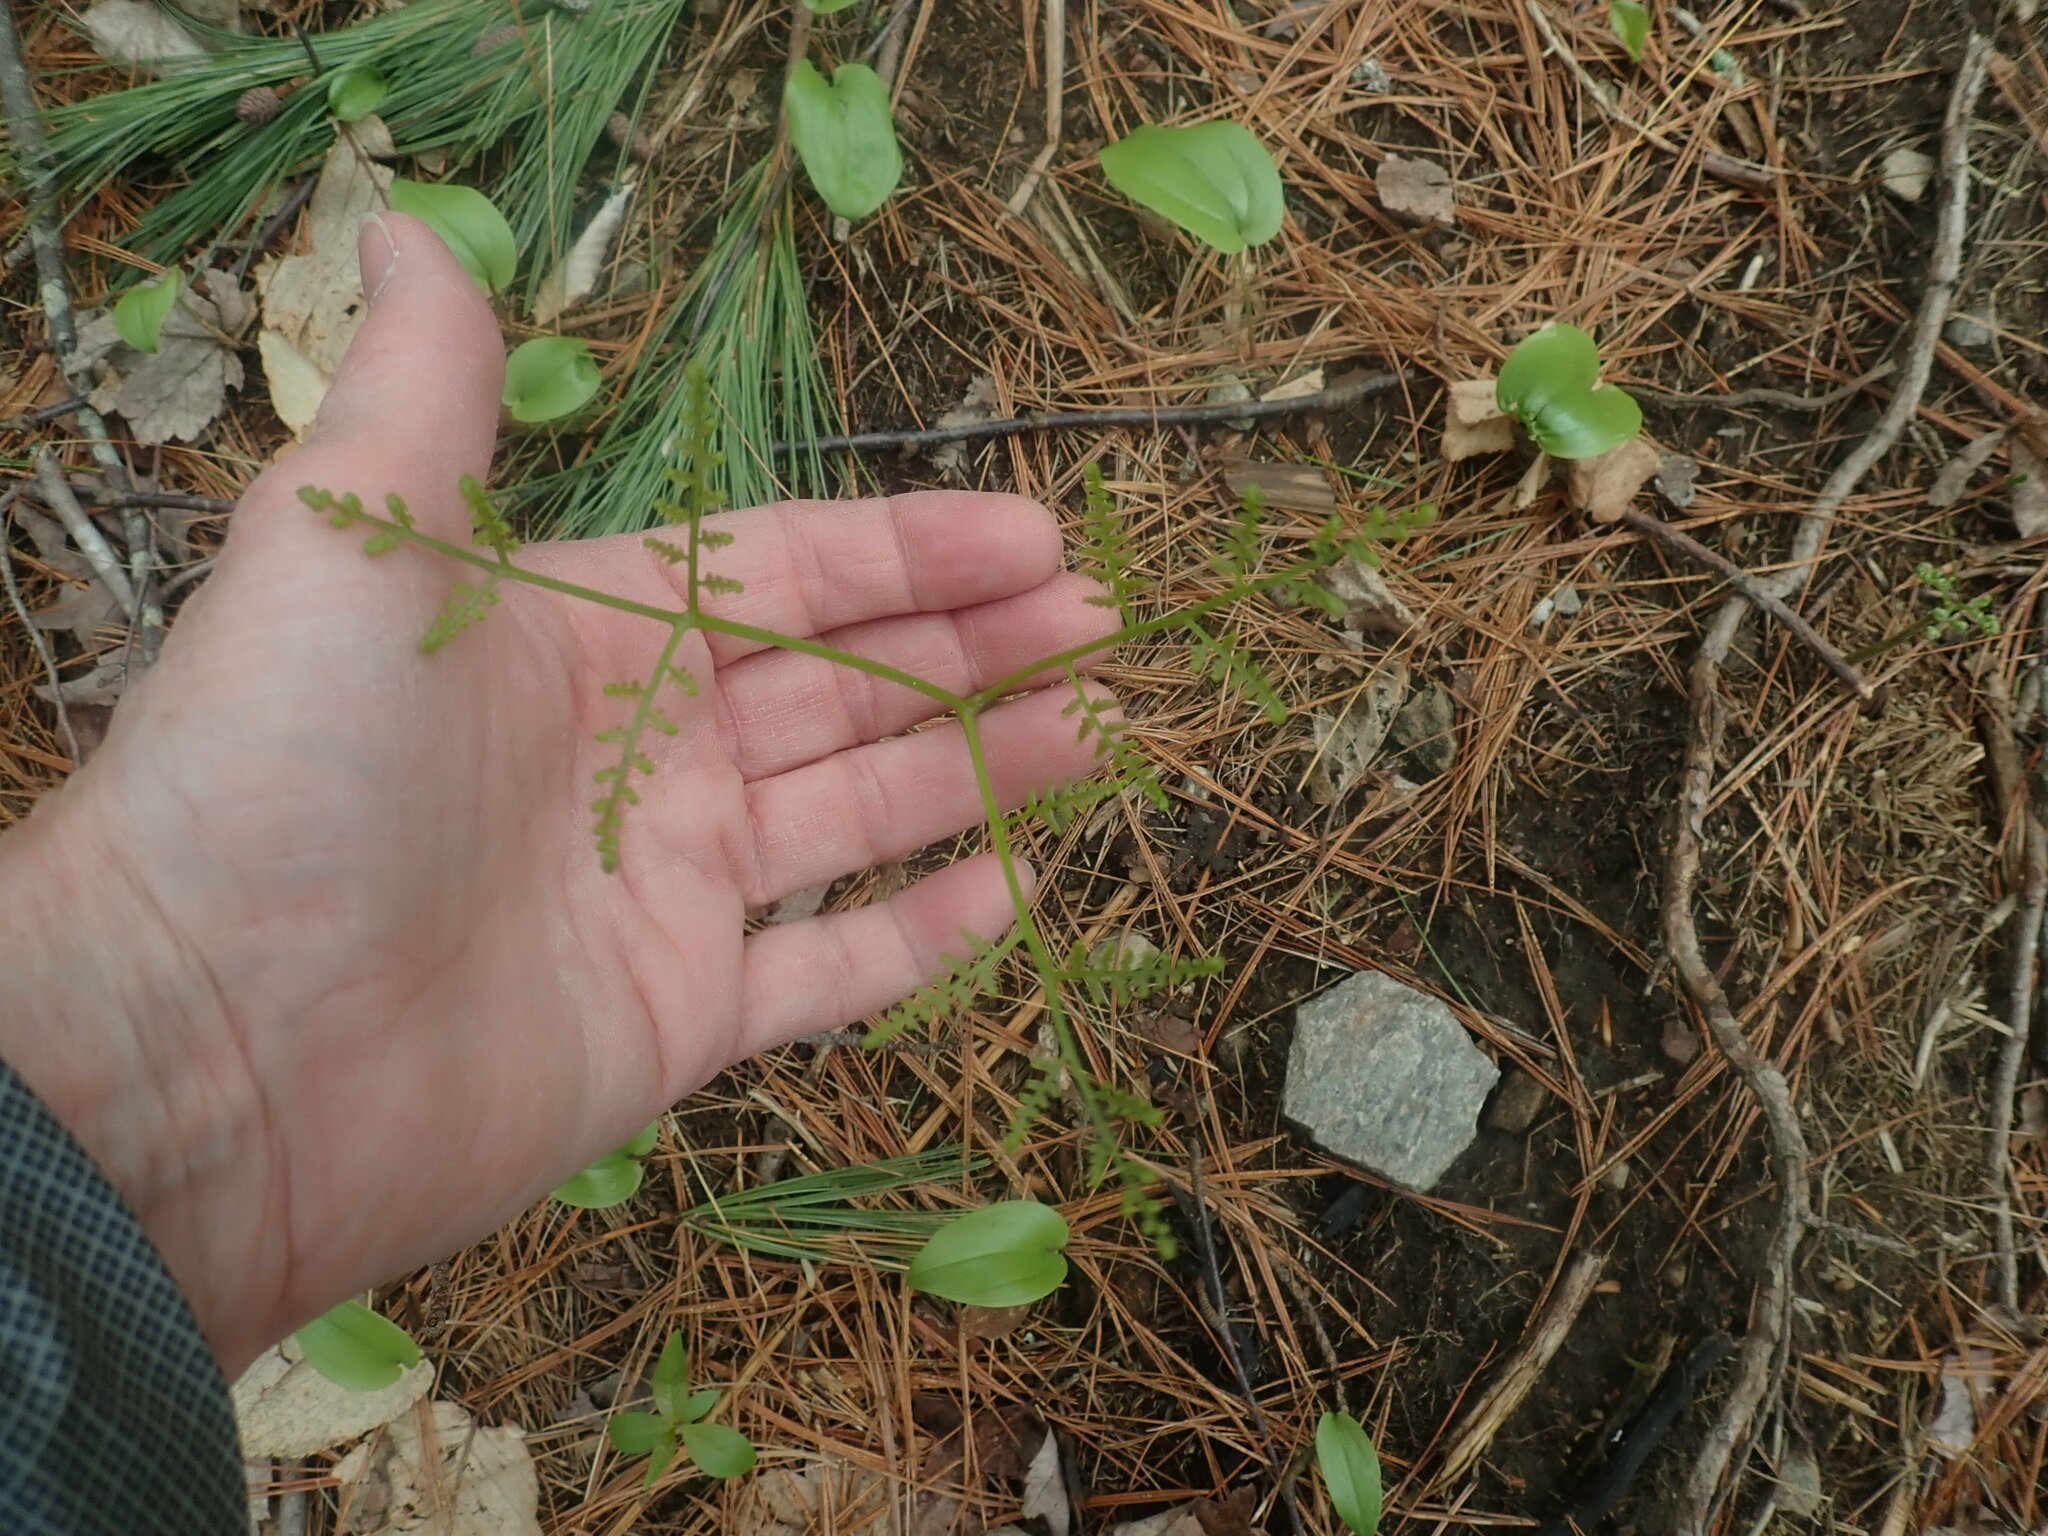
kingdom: Plantae
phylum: Tracheophyta
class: Polypodiopsida
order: Polypodiales
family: Dennstaedtiaceae
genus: Pteridium
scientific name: Pteridium aquilinum
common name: Bracken
